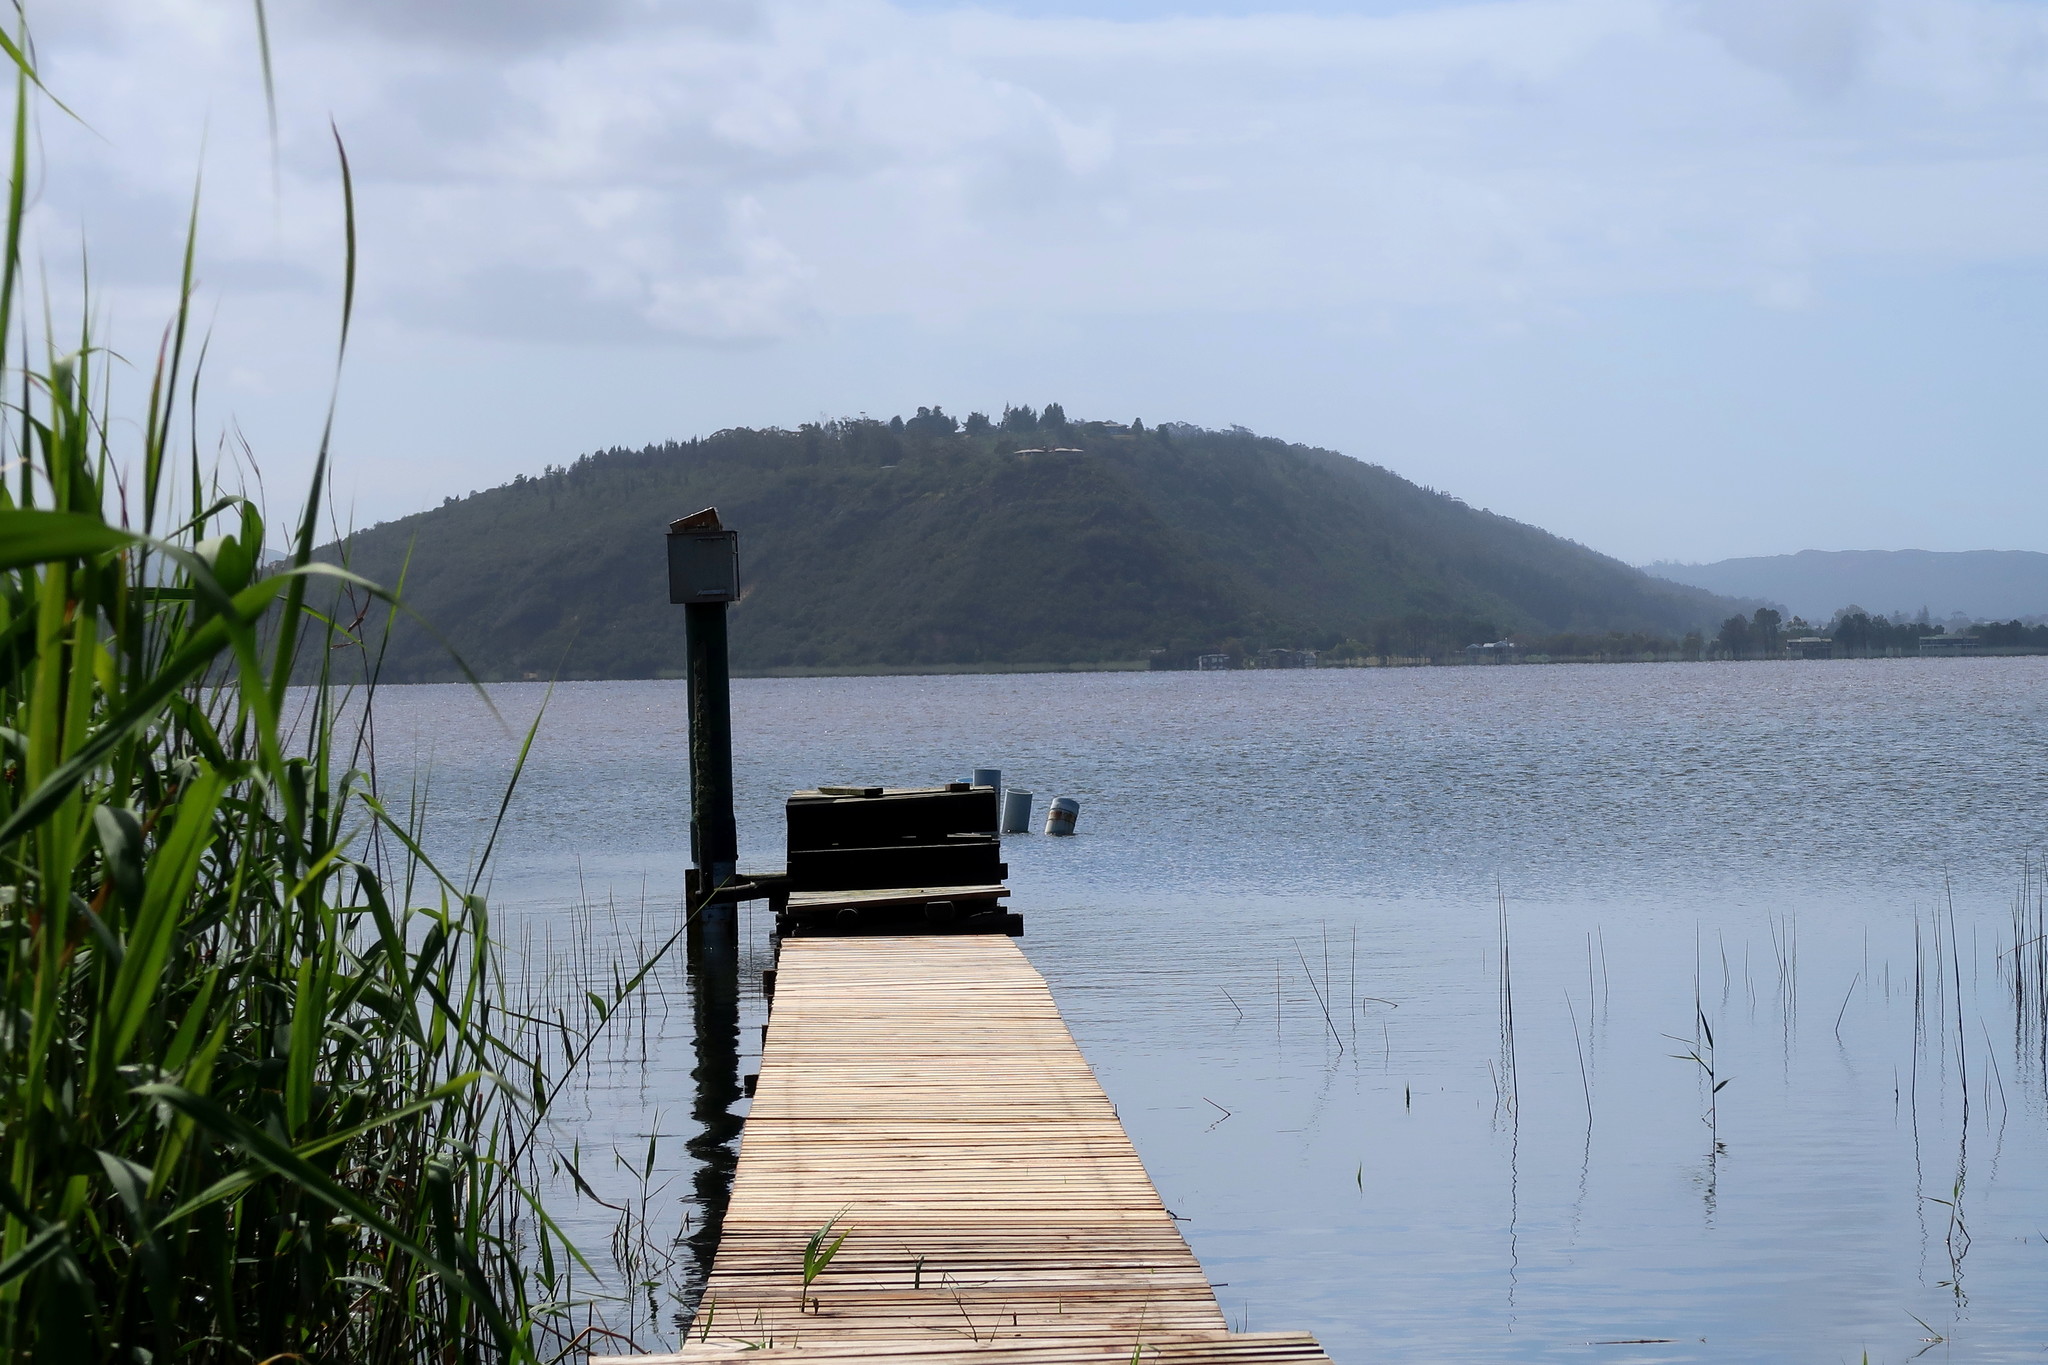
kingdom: Plantae
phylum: Tracheophyta
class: Liliopsida
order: Poales
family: Poaceae
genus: Phragmites
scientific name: Phragmites australis
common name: Common reed
